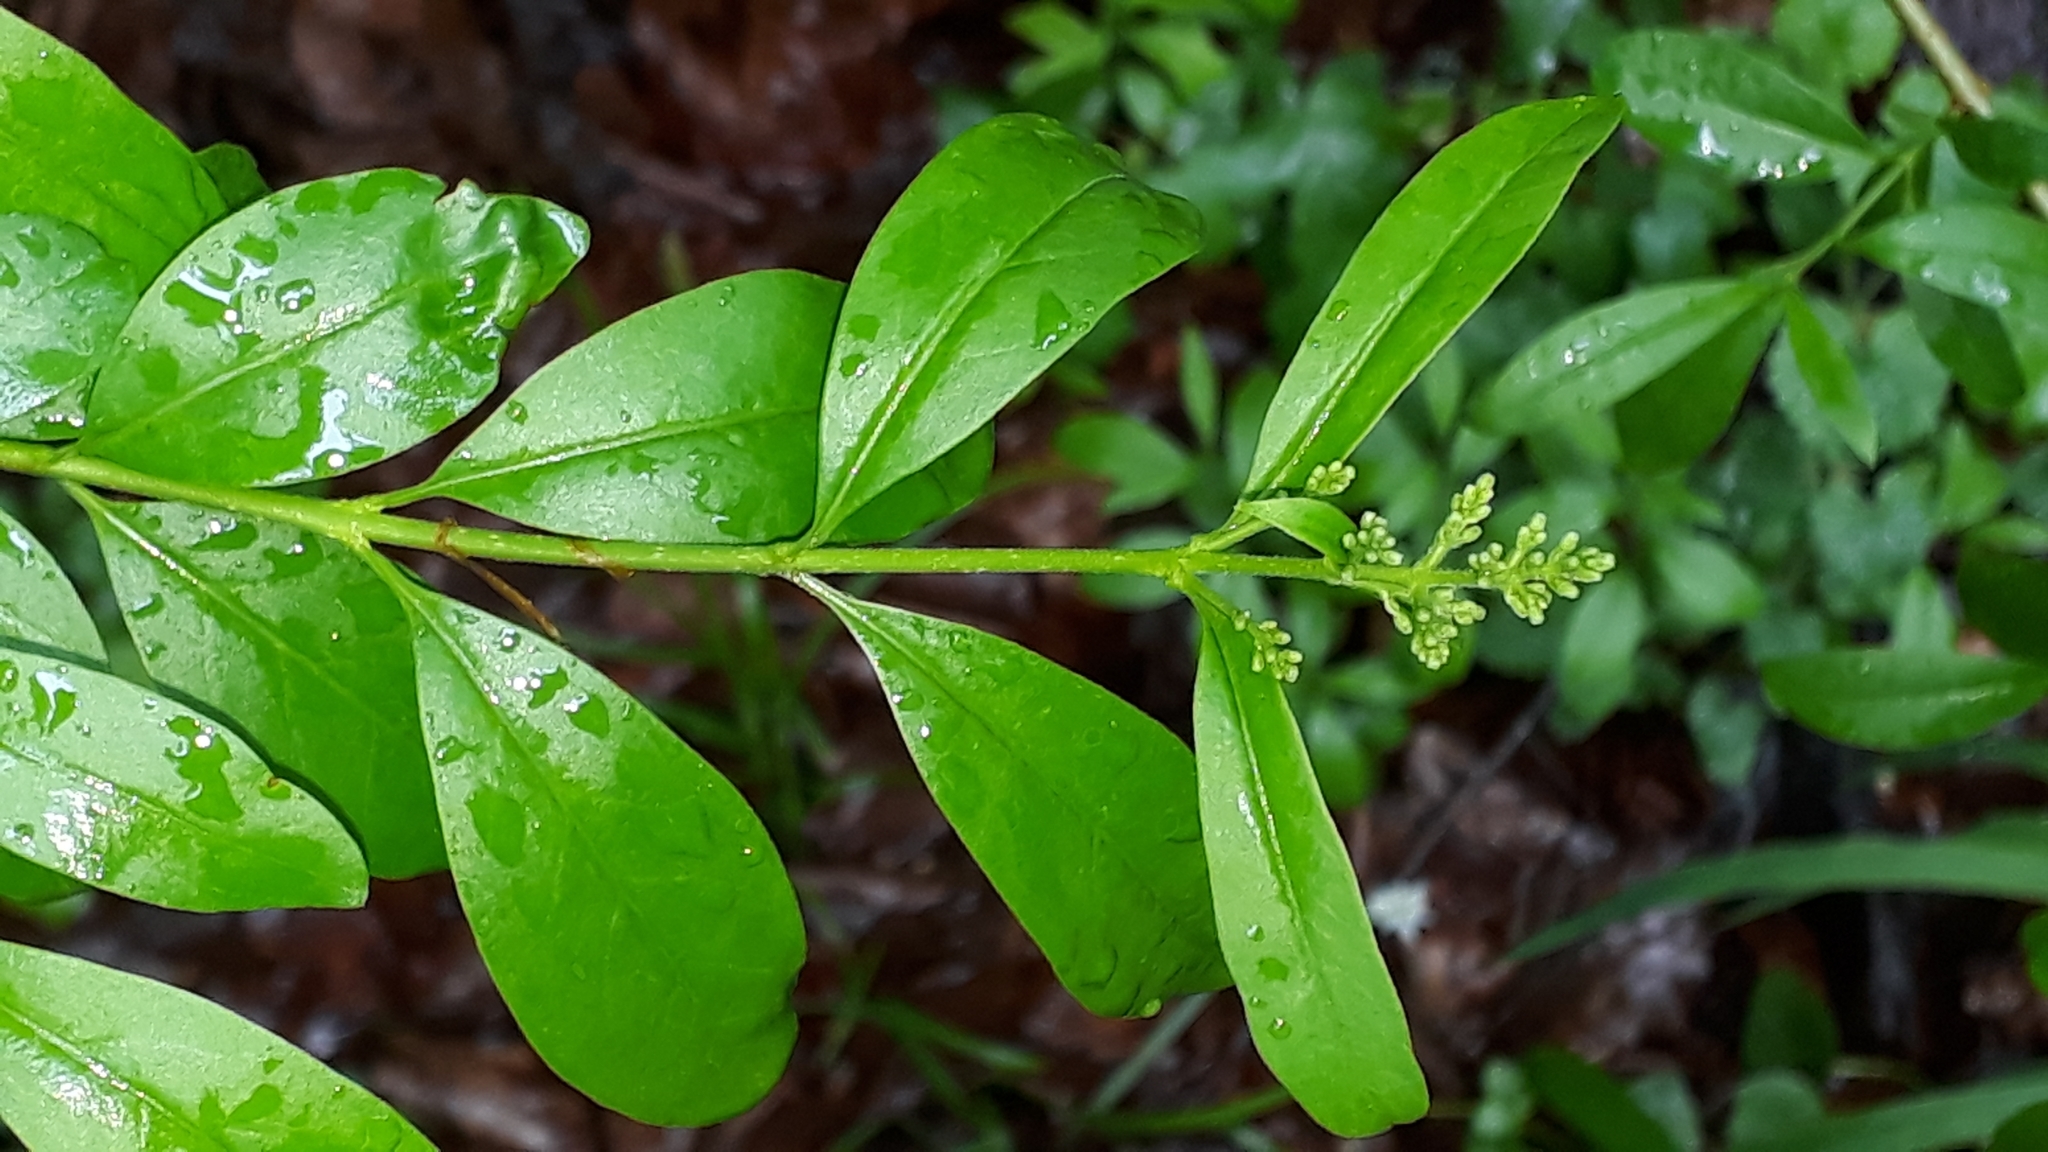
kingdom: Plantae
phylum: Tracheophyta
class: Magnoliopsida
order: Lamiales
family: Oleaceae
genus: Ligustrum
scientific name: Ligustrum vulgare
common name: Wild privet
